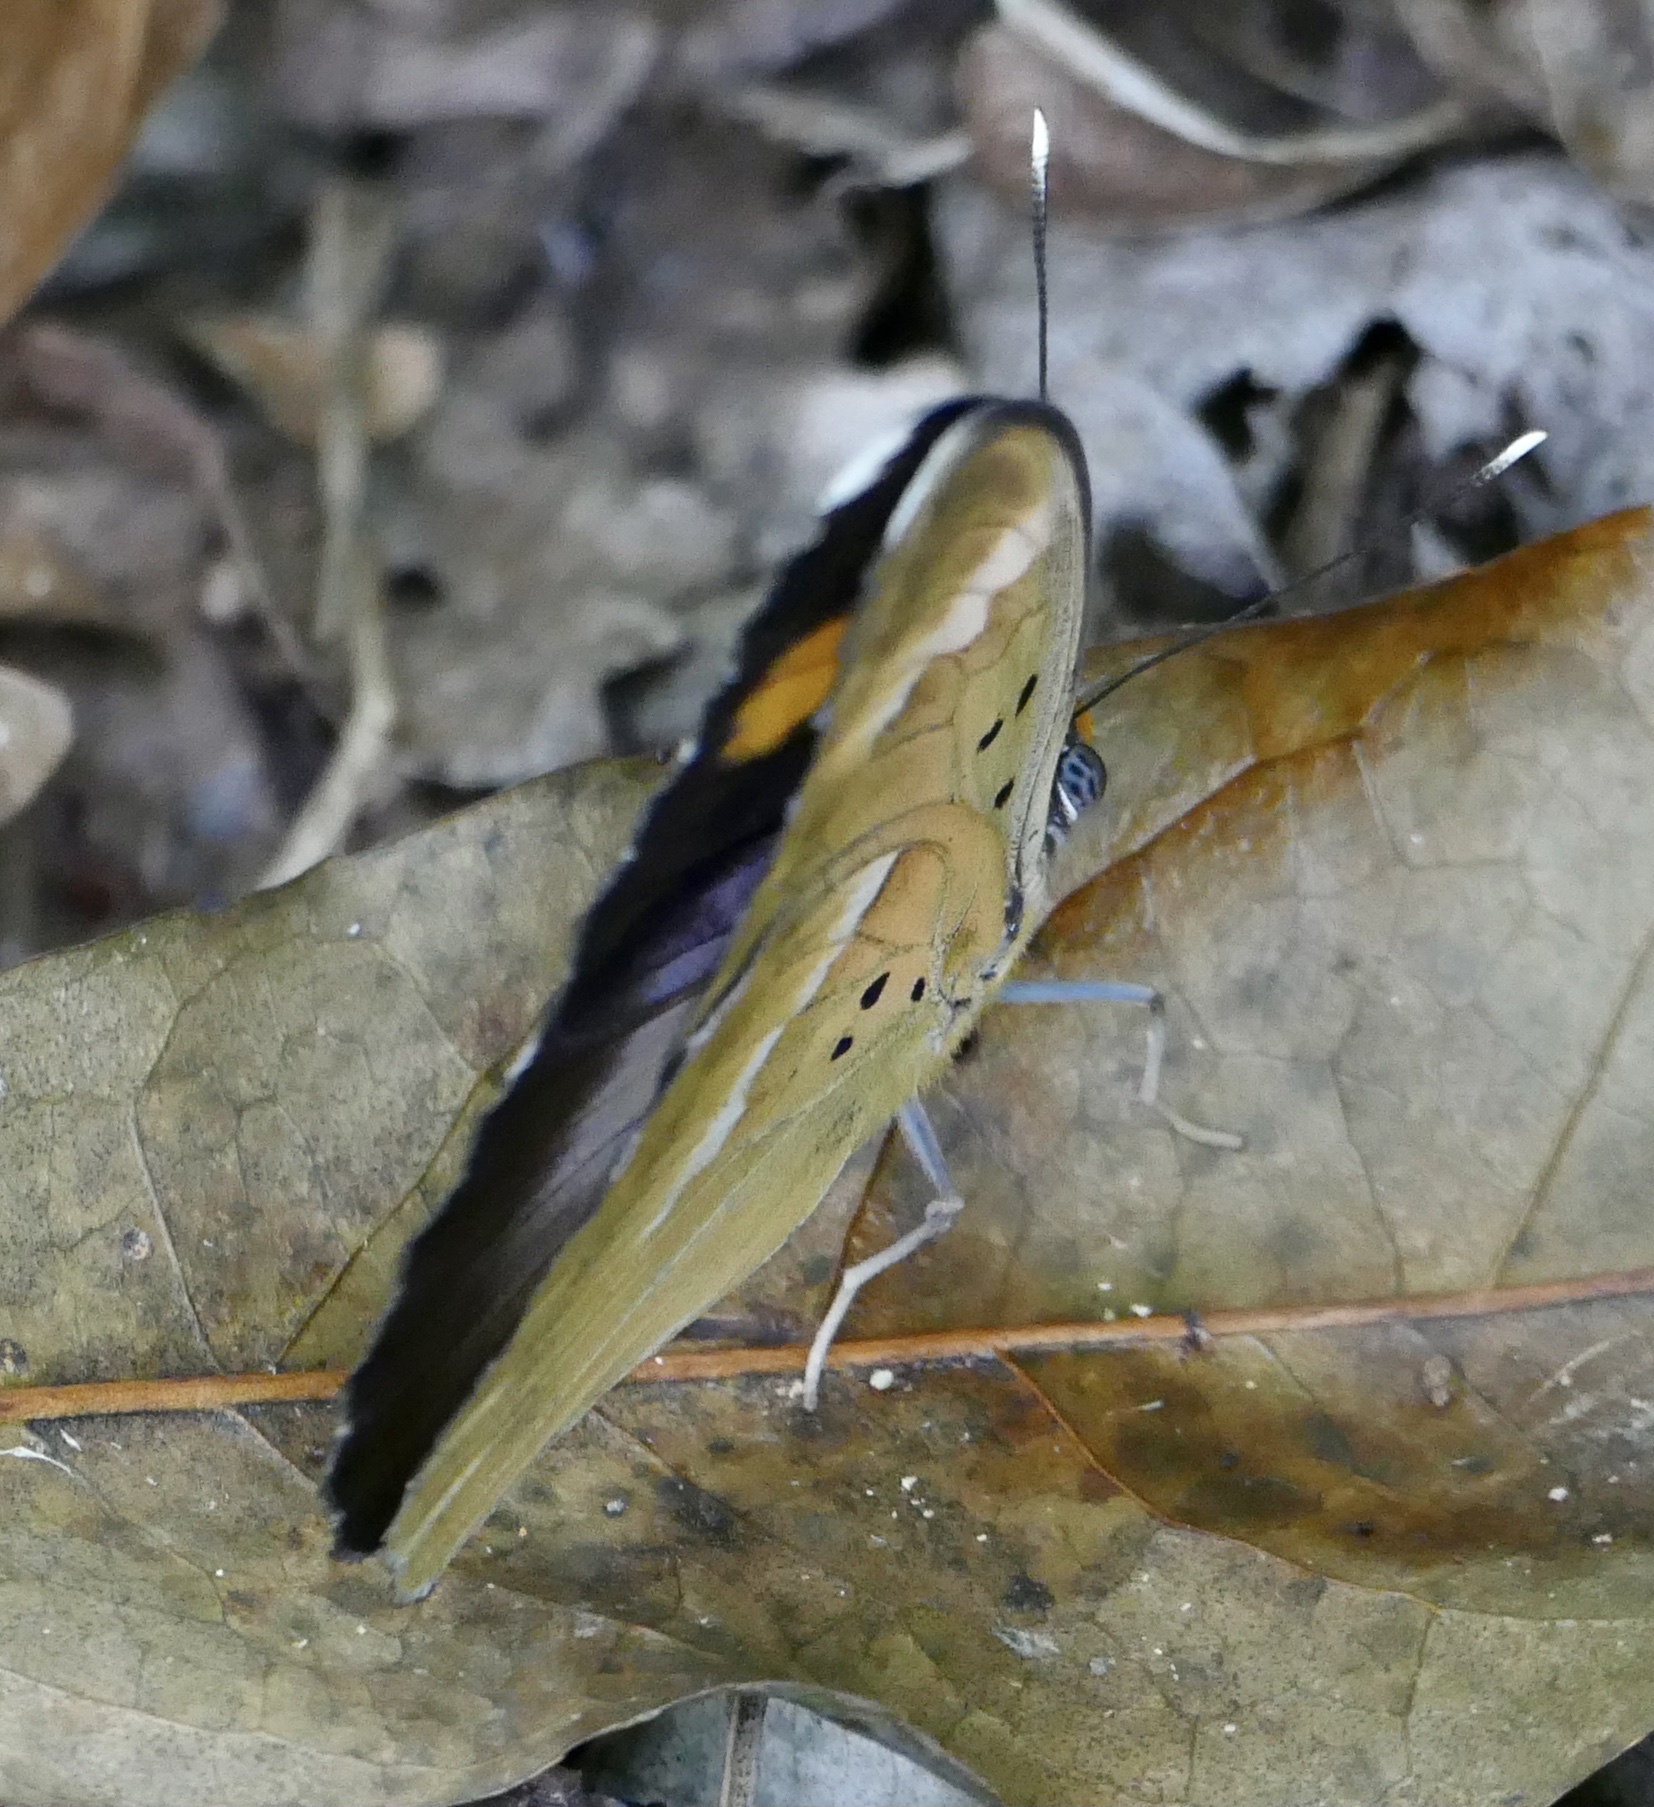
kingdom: Animalia
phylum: Arthropoda
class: Insecta
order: Lepidoptera
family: Nymphalidae
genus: Euphaedra
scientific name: Euphaedra medon
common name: Widespread forester
